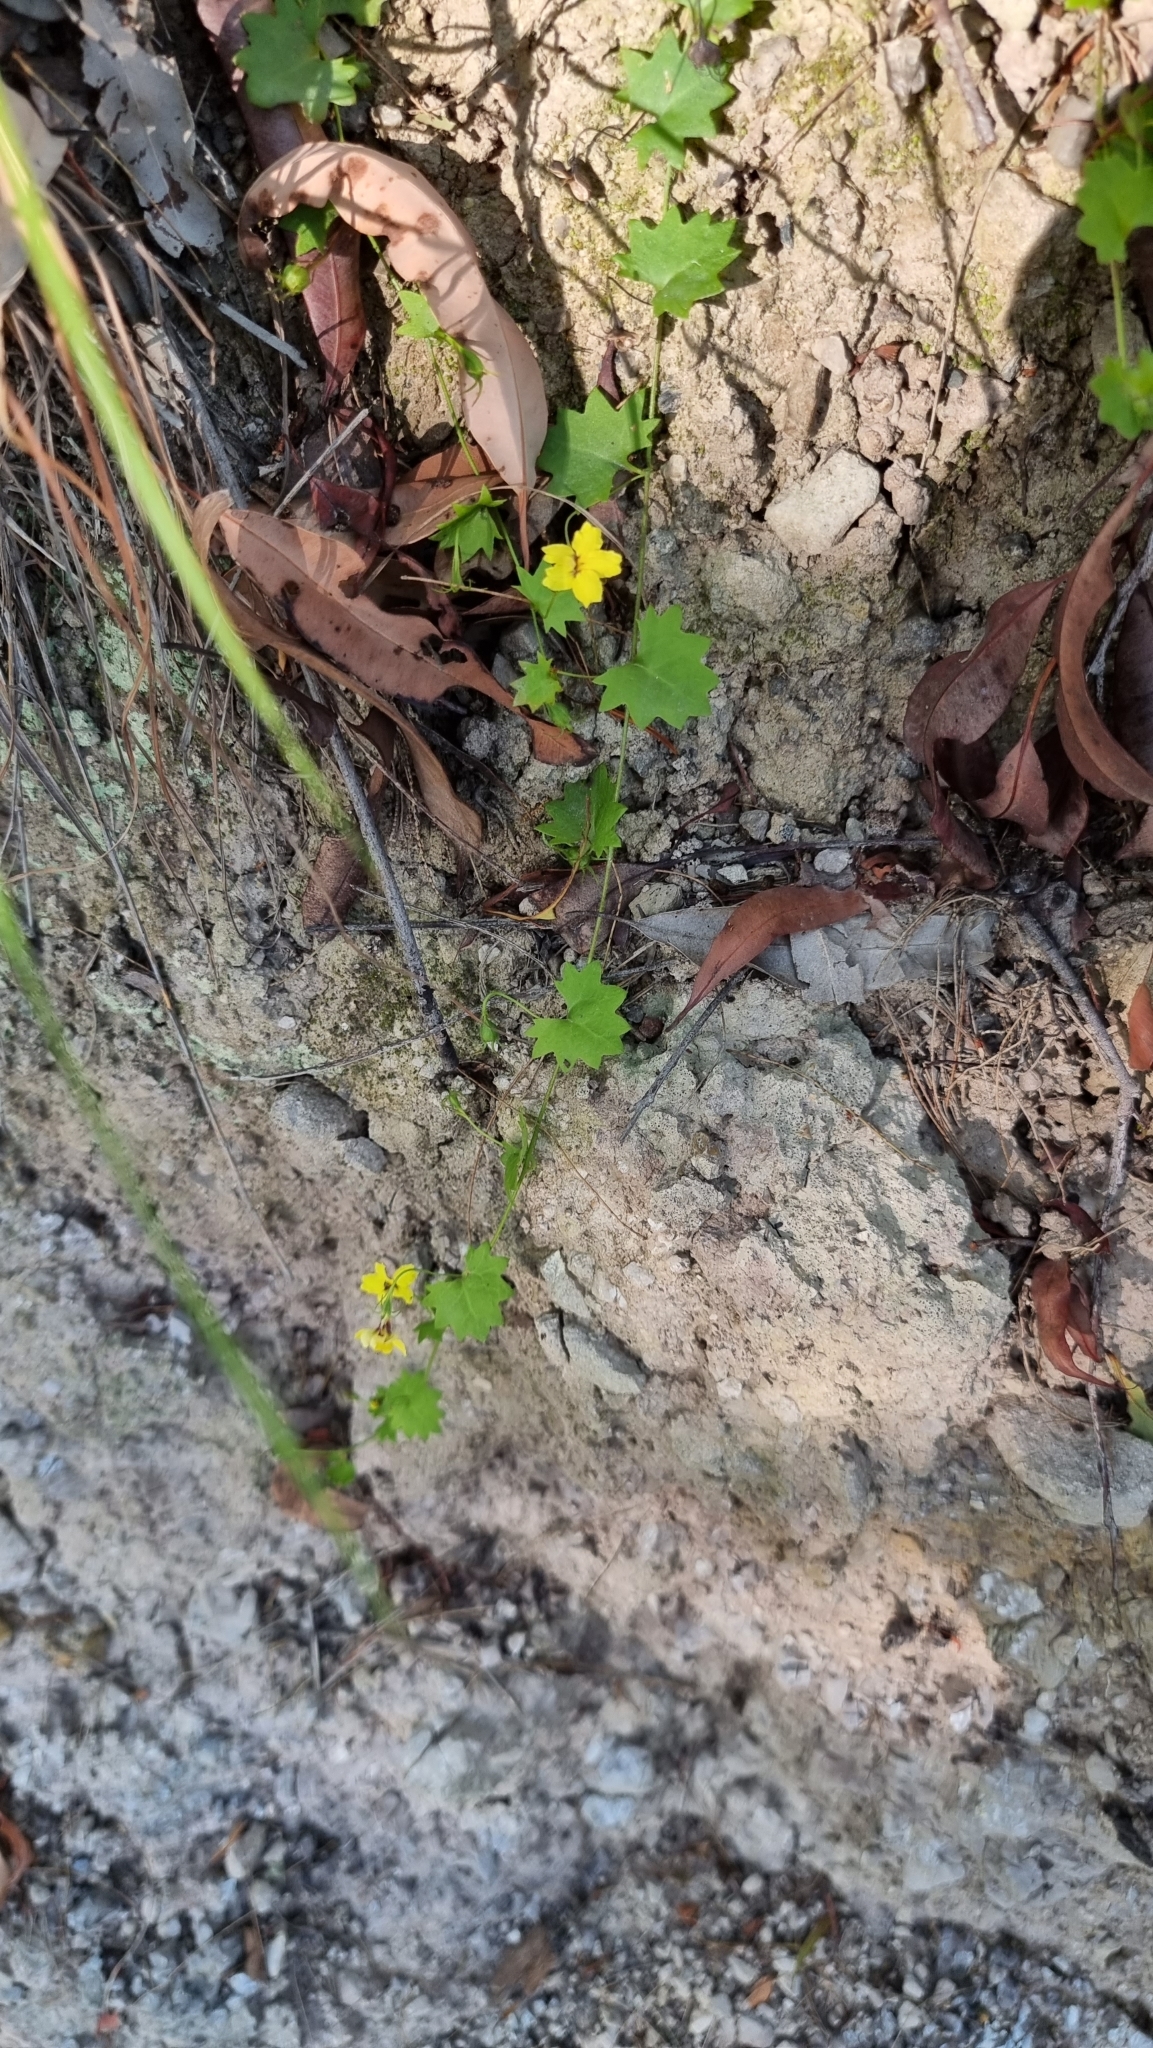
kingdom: Plantae
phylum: Tracheophyta
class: Magnoliopsida
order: Asterales
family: Goodeniaceae
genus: Goodenia
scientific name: Goodenia rotundifolia
